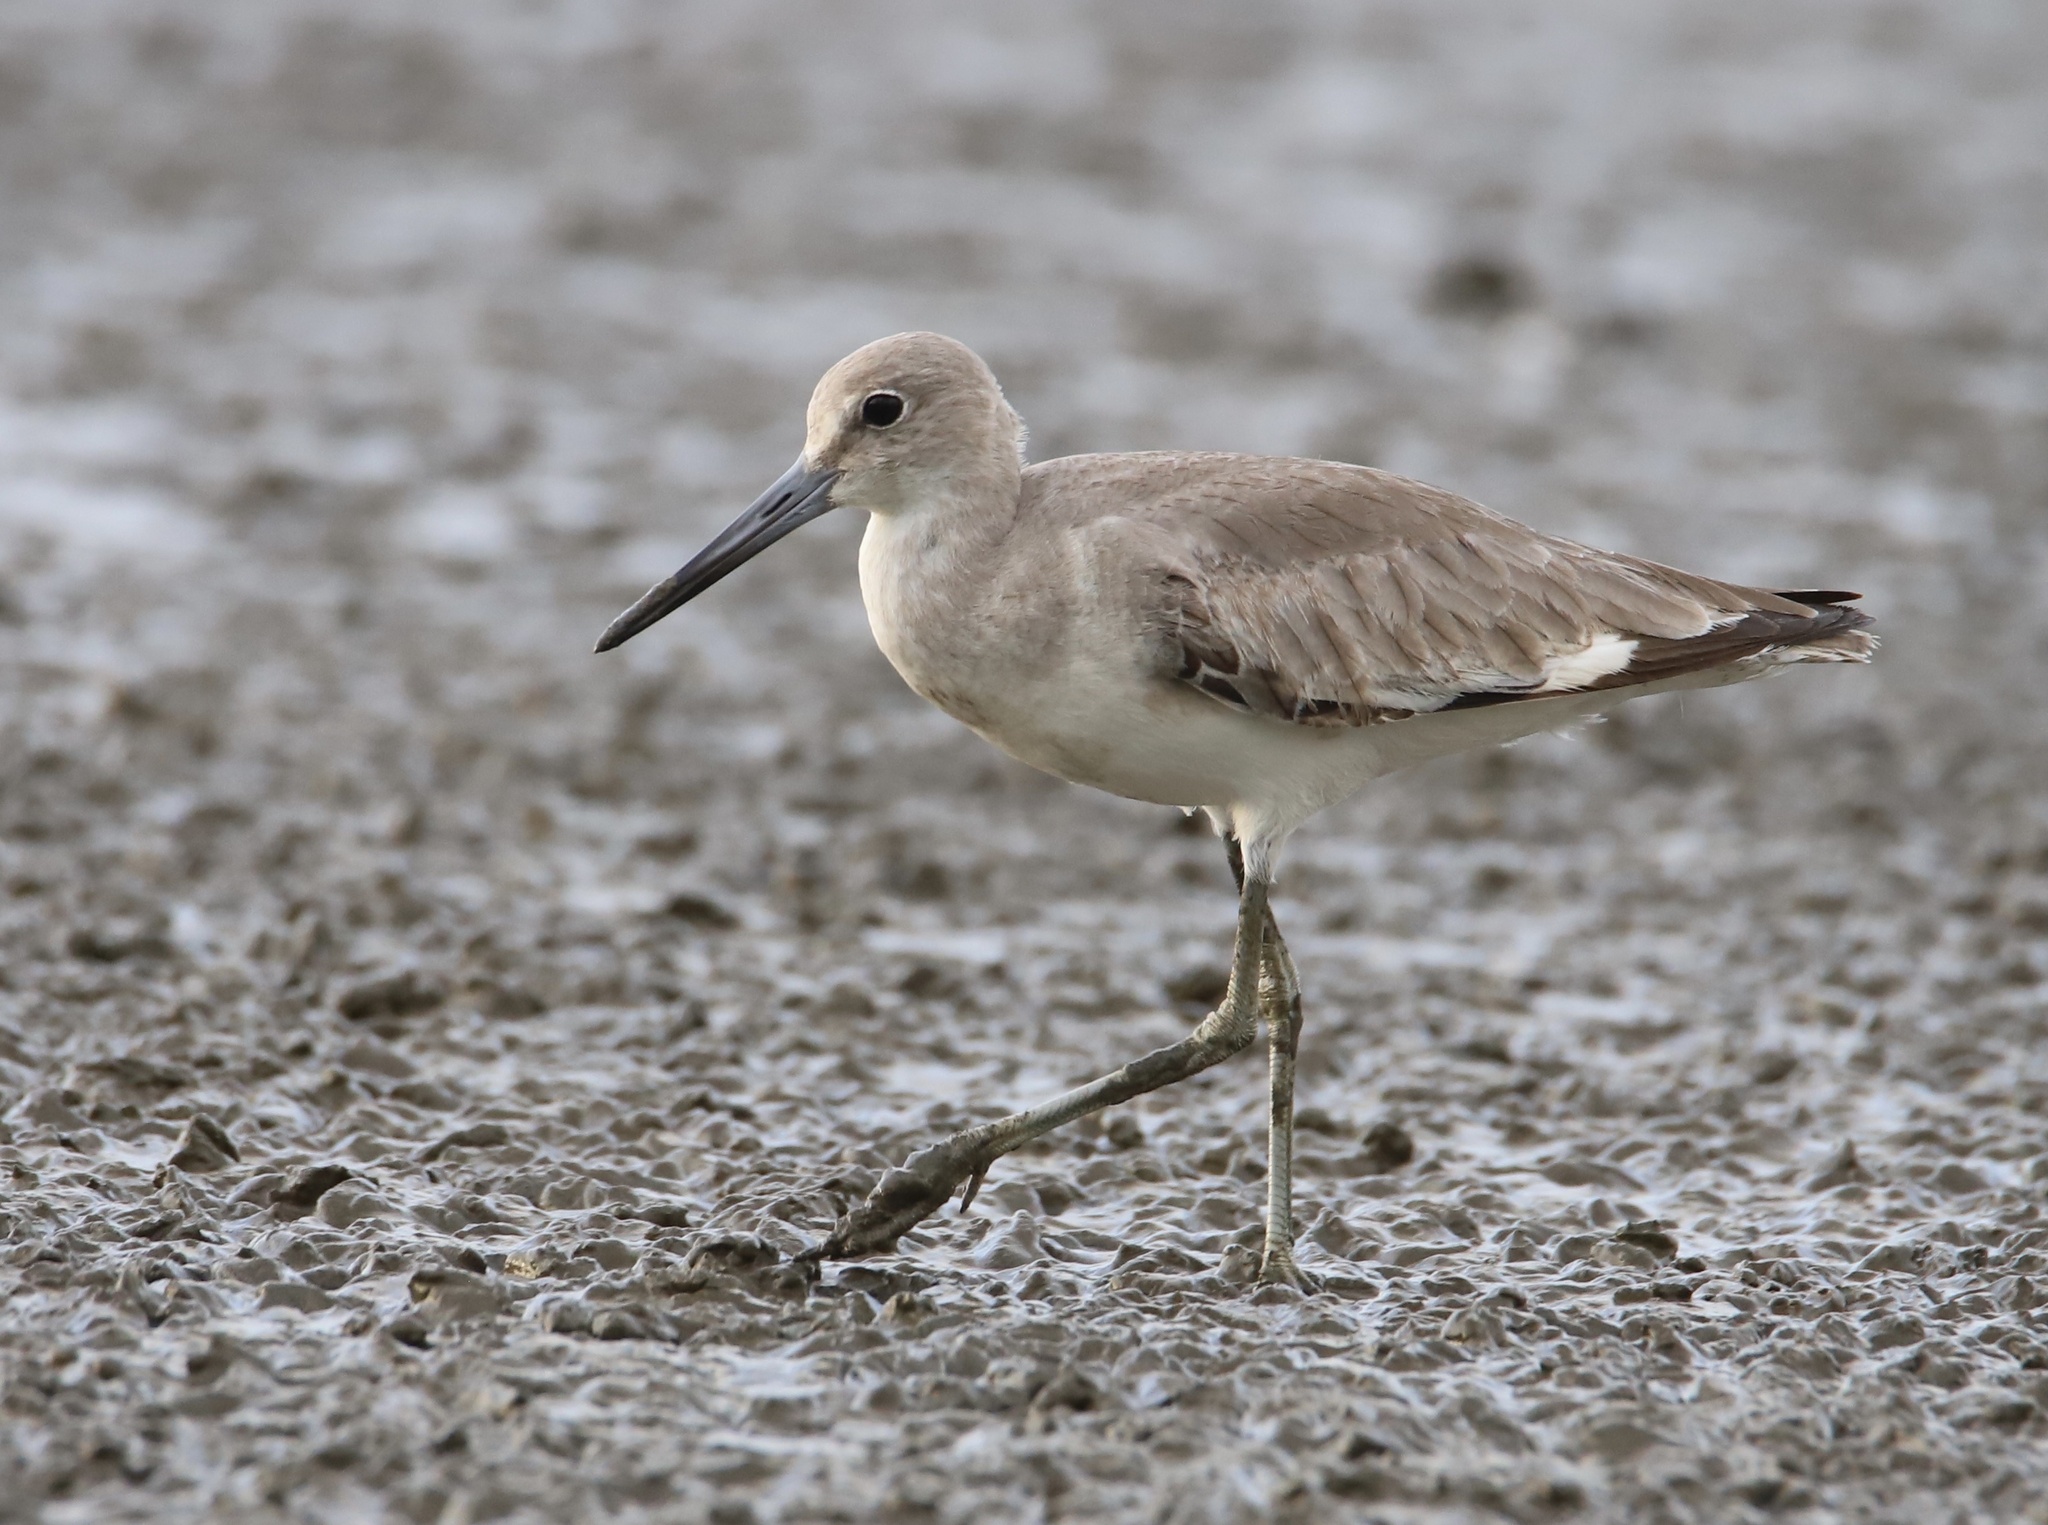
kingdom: Animalia
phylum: Chordata
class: Aves
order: Charadriiformes
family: Scolopacidae
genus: Tringa
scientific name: Tringa semipalmata
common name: Willet
